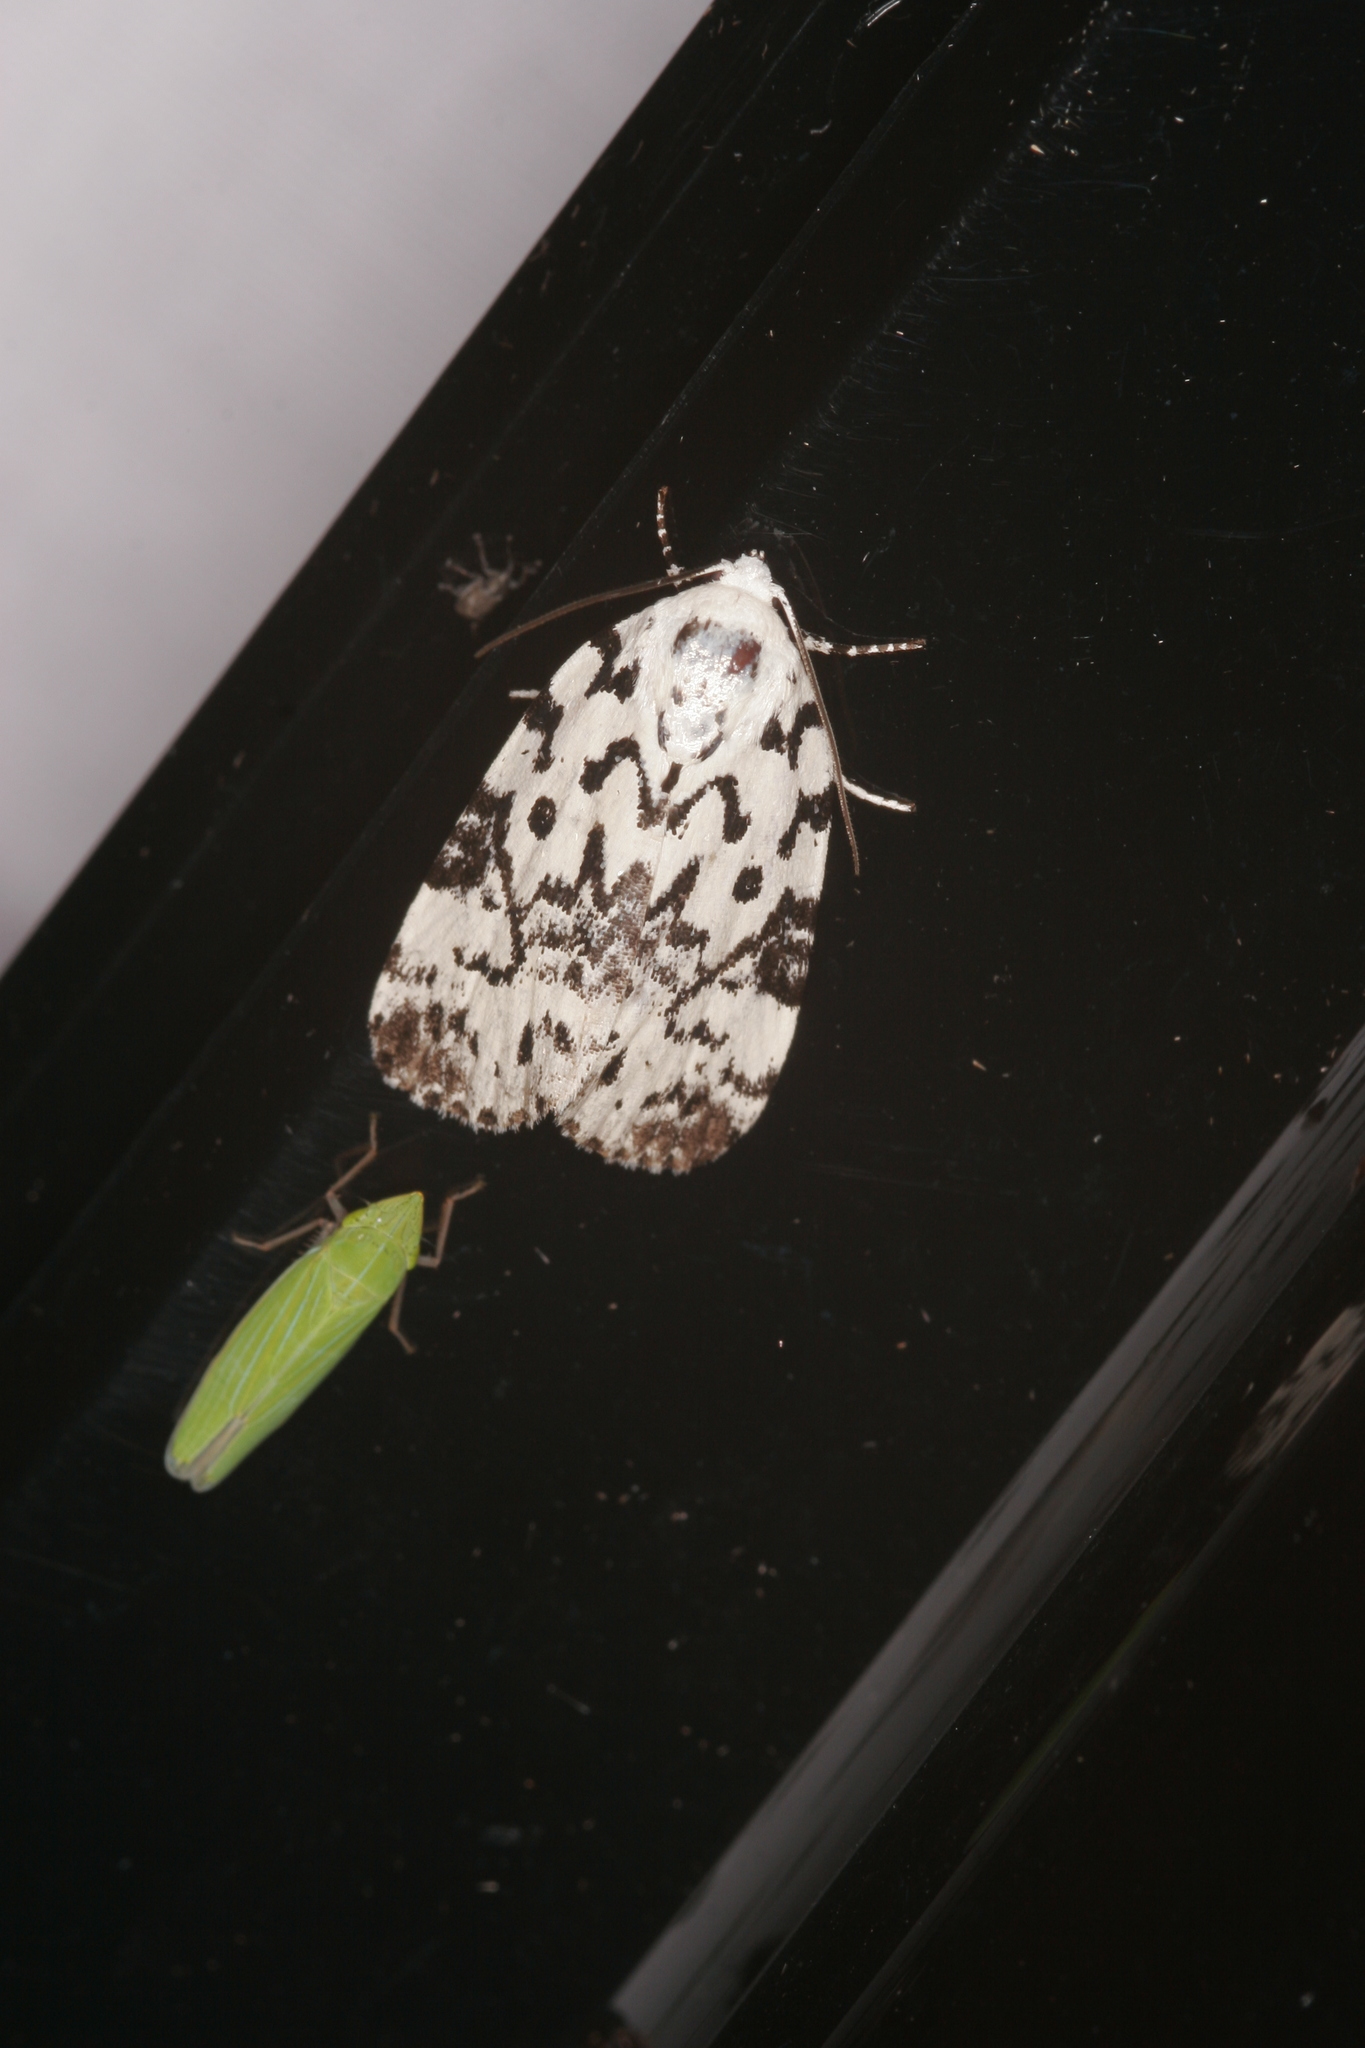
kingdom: Animalia
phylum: Arthropoda
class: Insecta
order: Lepidoptera
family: Noctuidae
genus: Polygrammate
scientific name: Polygrammate hebraeicum
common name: Hebrew moth
